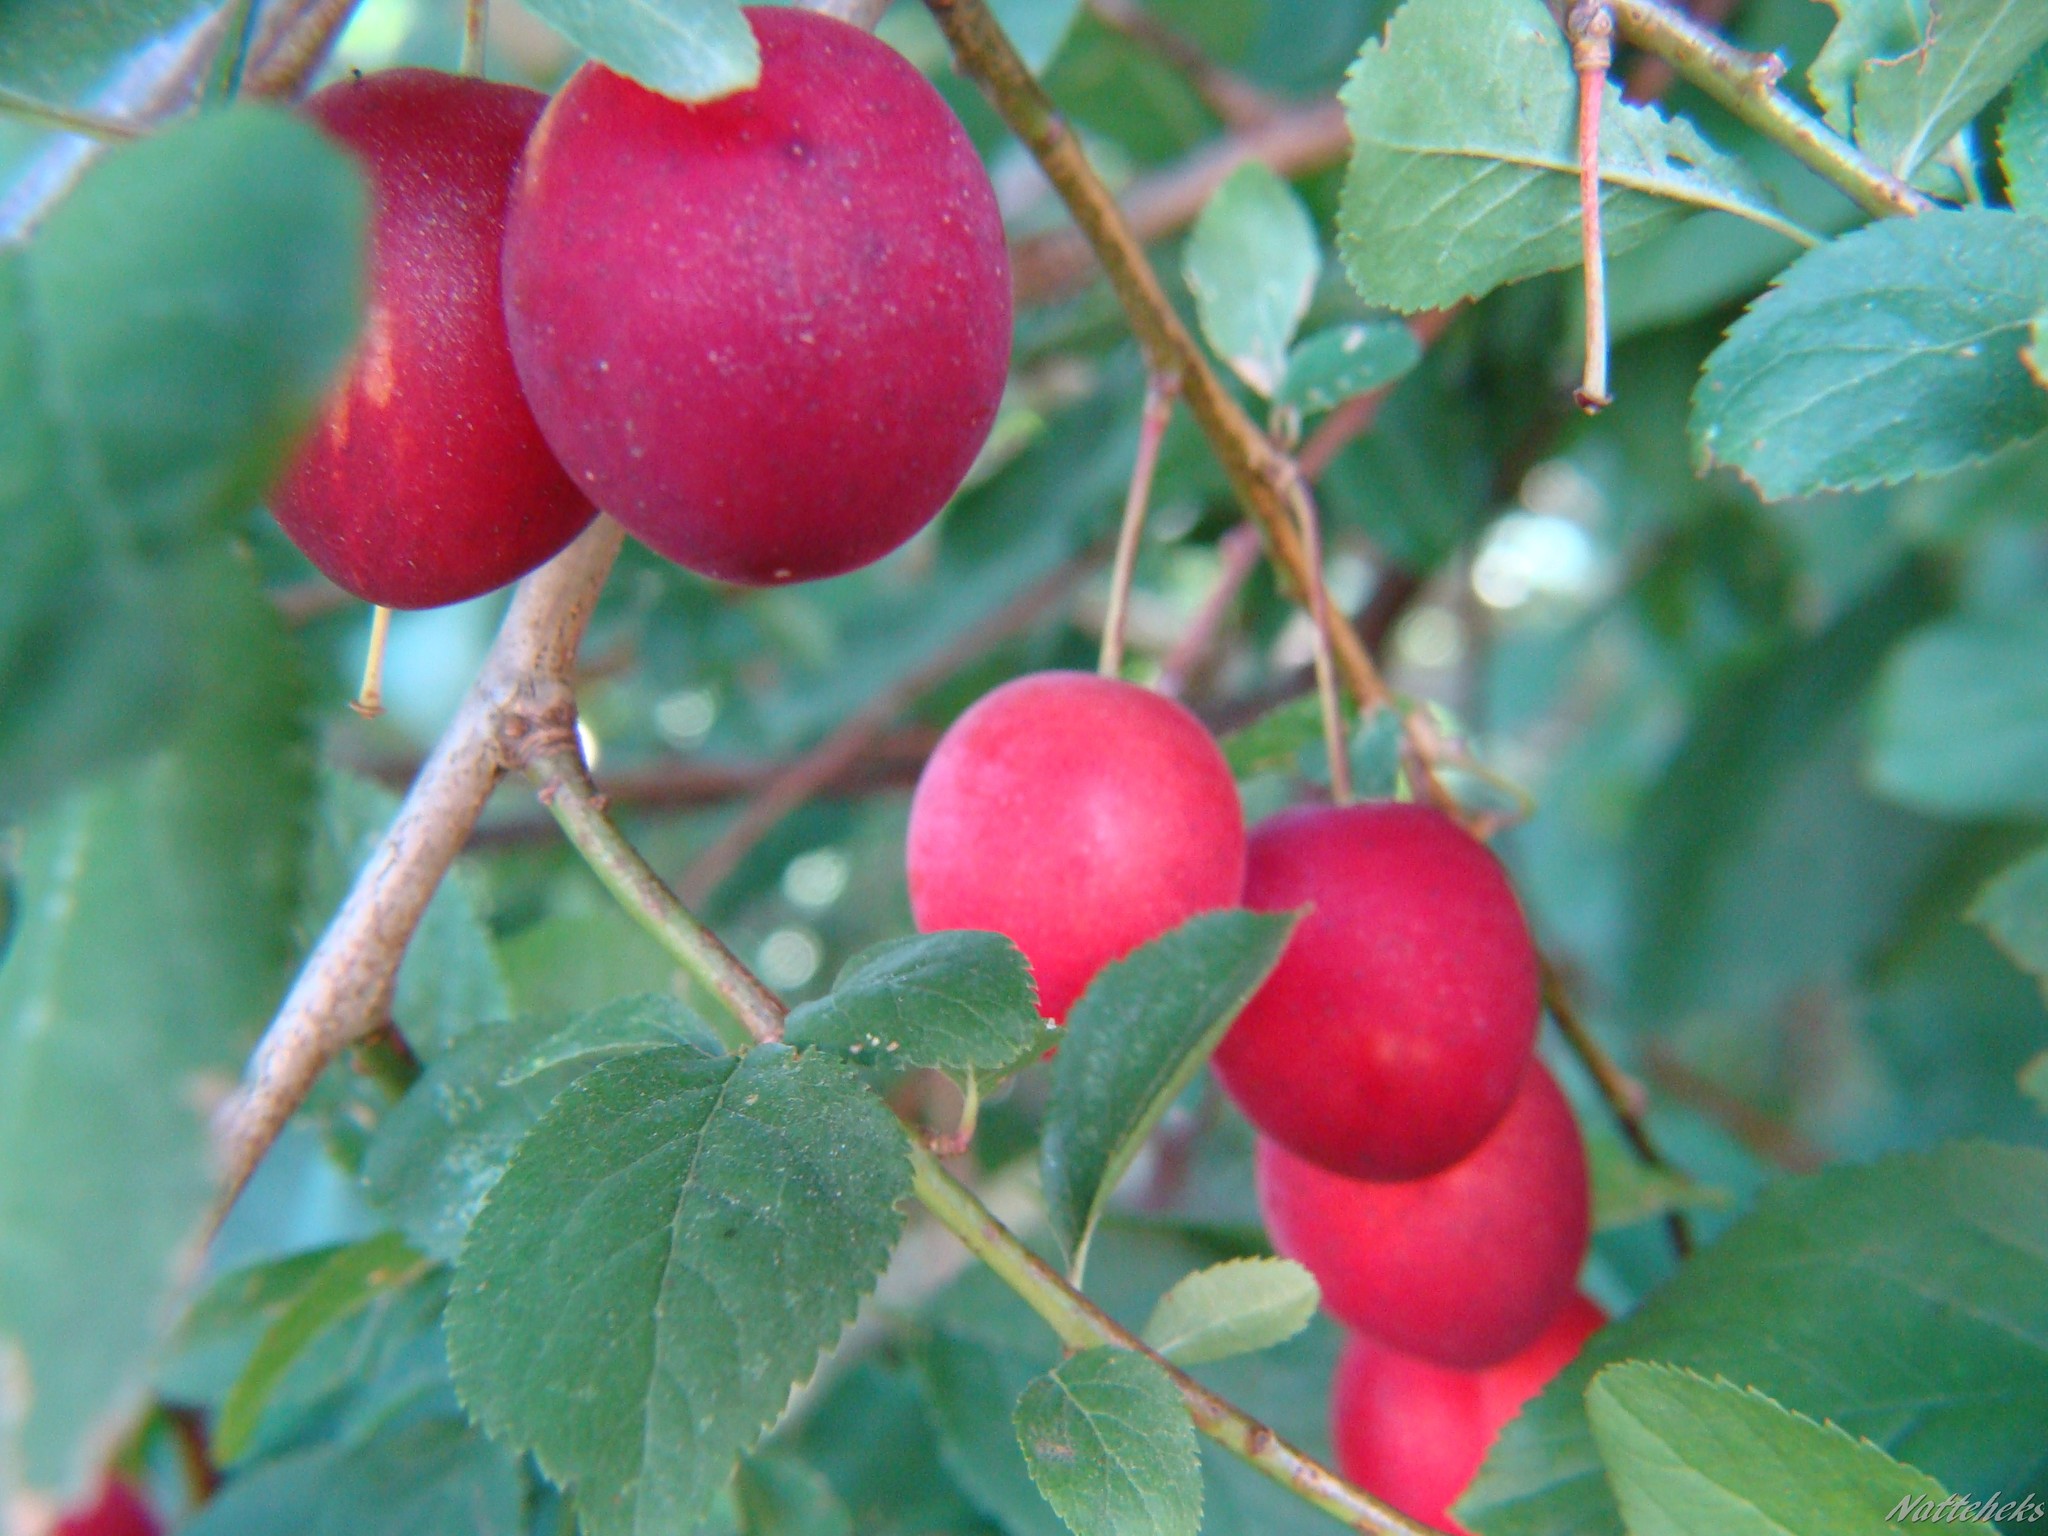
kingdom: Plantae
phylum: Tracheophyta
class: Magnoliopsida
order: Rosales
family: Rosaceae
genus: Prunus
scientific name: Prunus cerasifera
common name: Cherry plum
